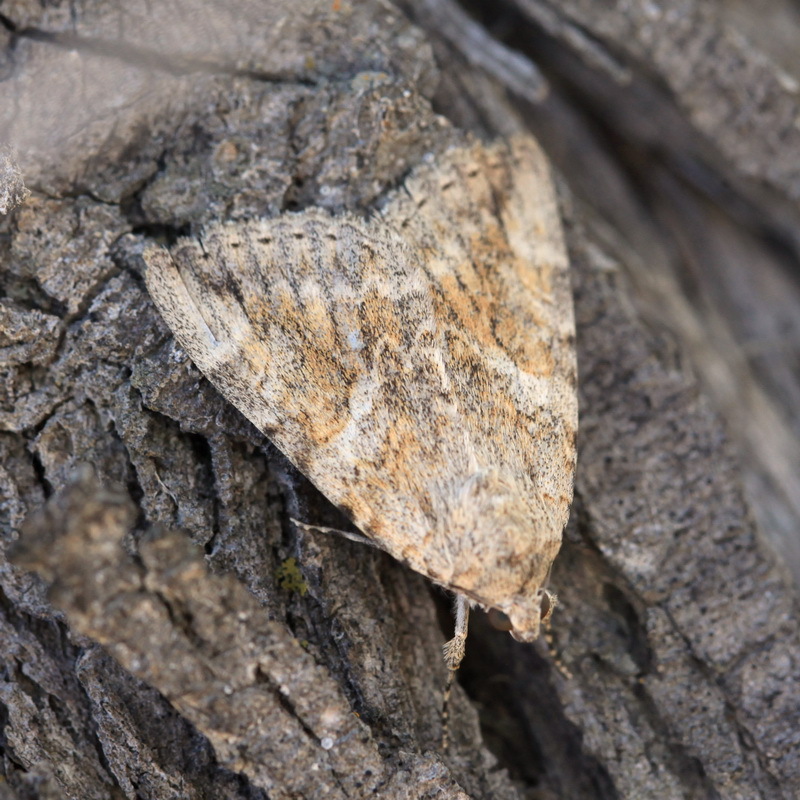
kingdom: Animalia
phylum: Arthropoda
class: Insecta
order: Lepidoptera
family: Erebidae
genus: Catocala
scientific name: Catocala timur
